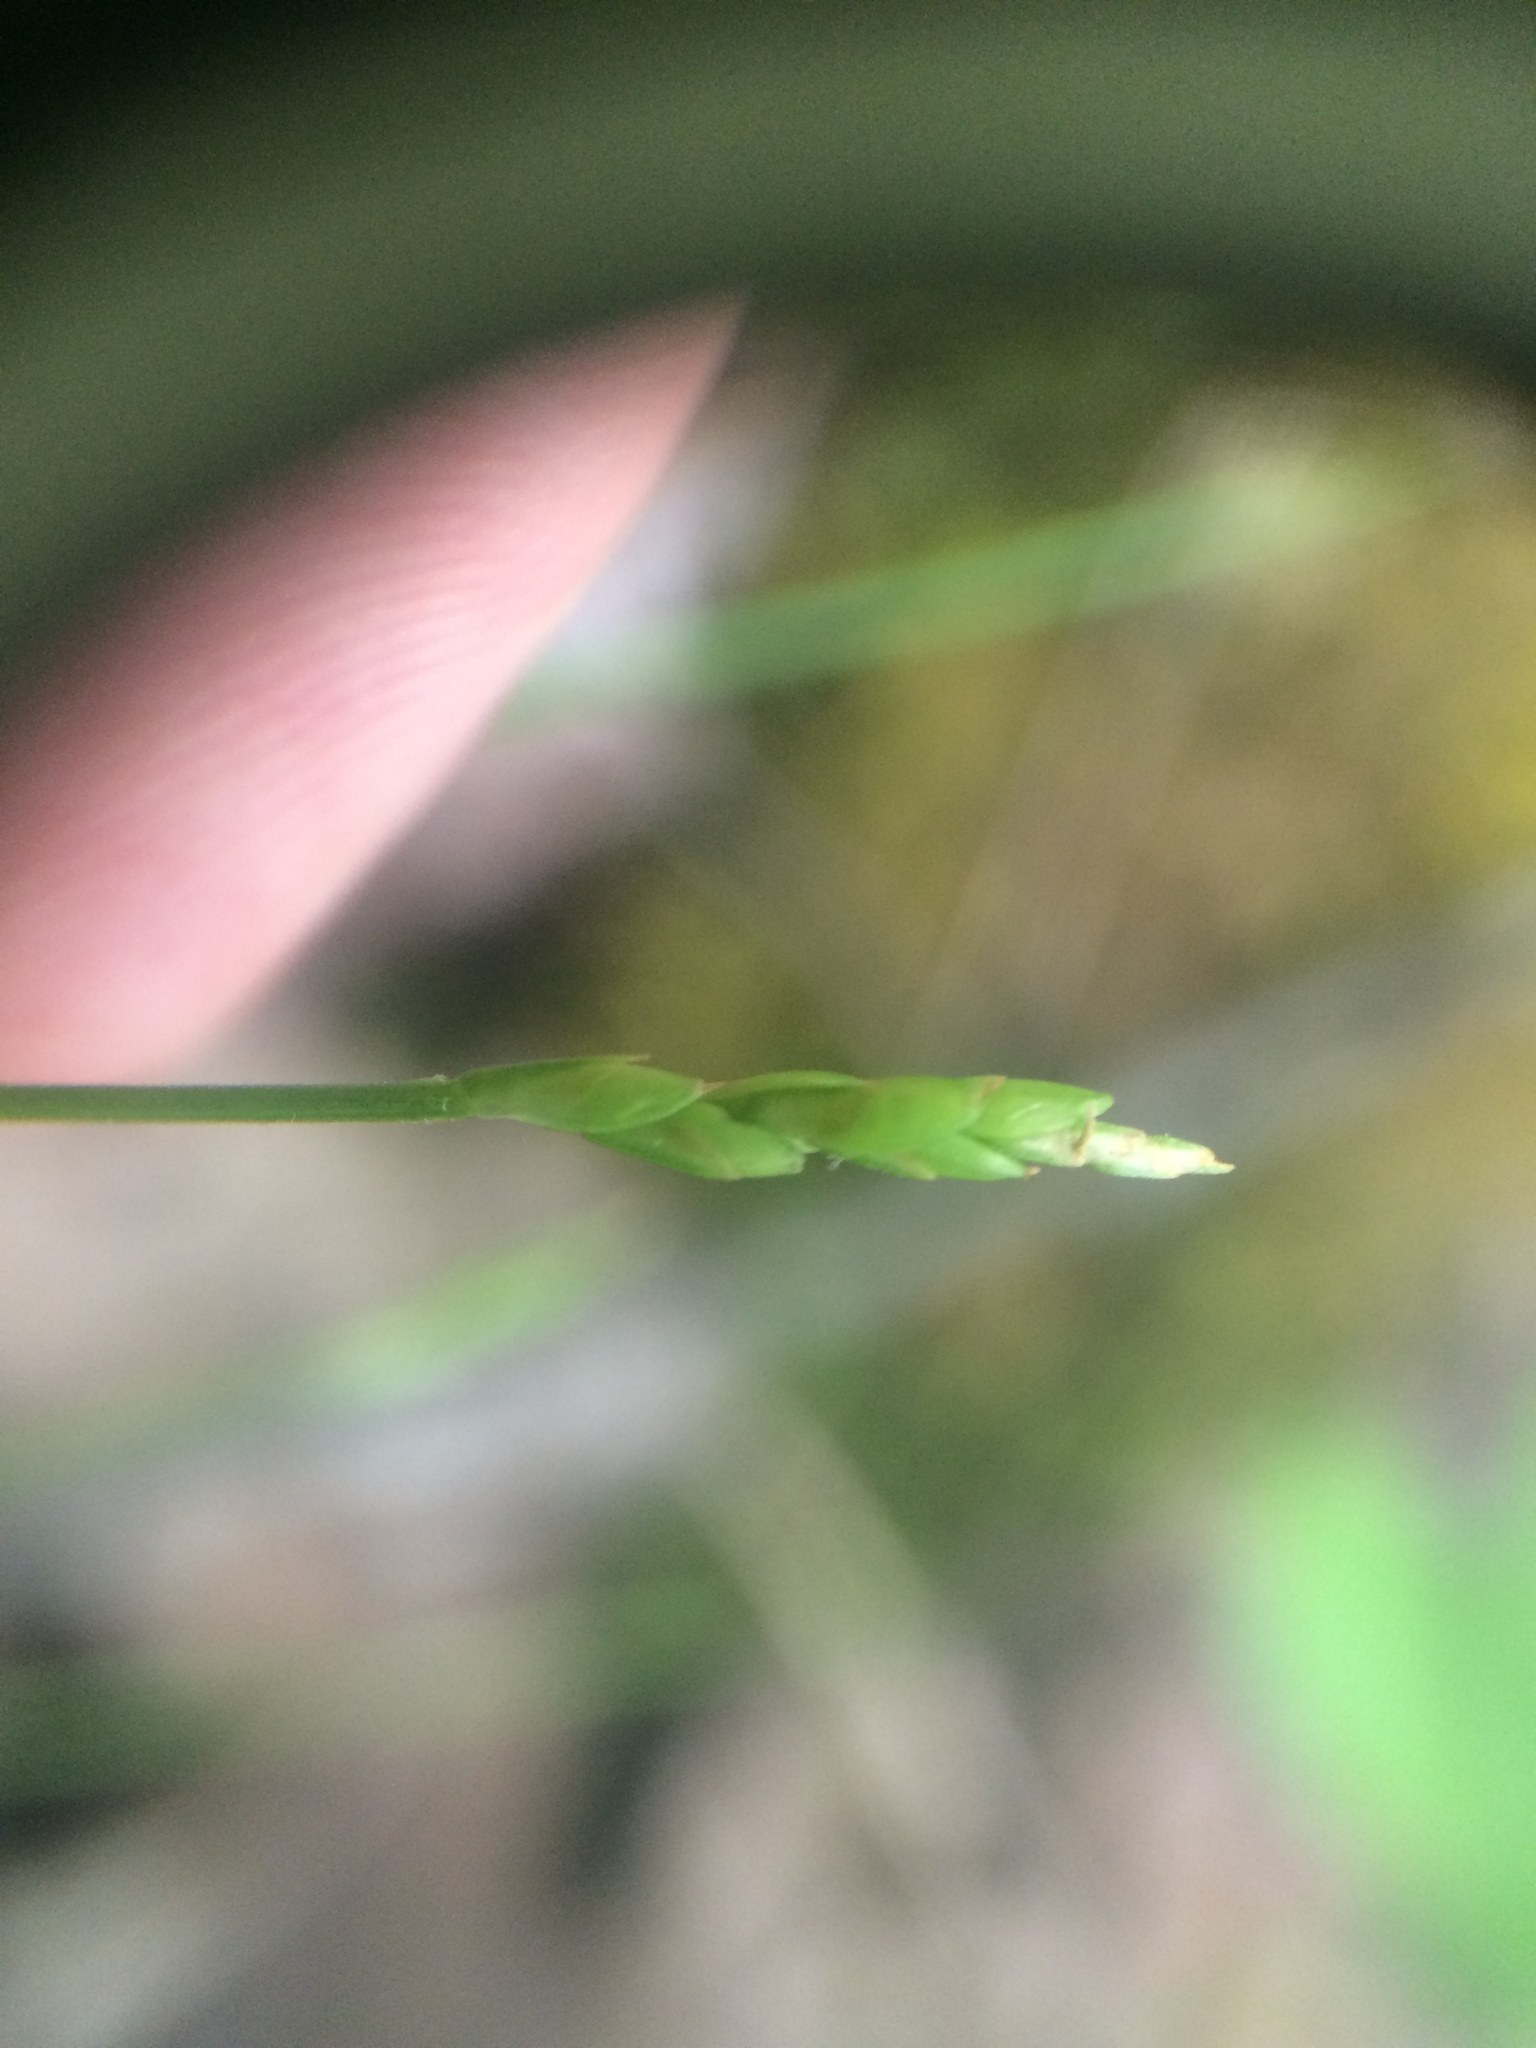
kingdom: Plantae
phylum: Tracheophyta
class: Liliopsida
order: Poales
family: Cyperaceae
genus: Carex
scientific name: Carex leptalea
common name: Bristly-stalked sedge
